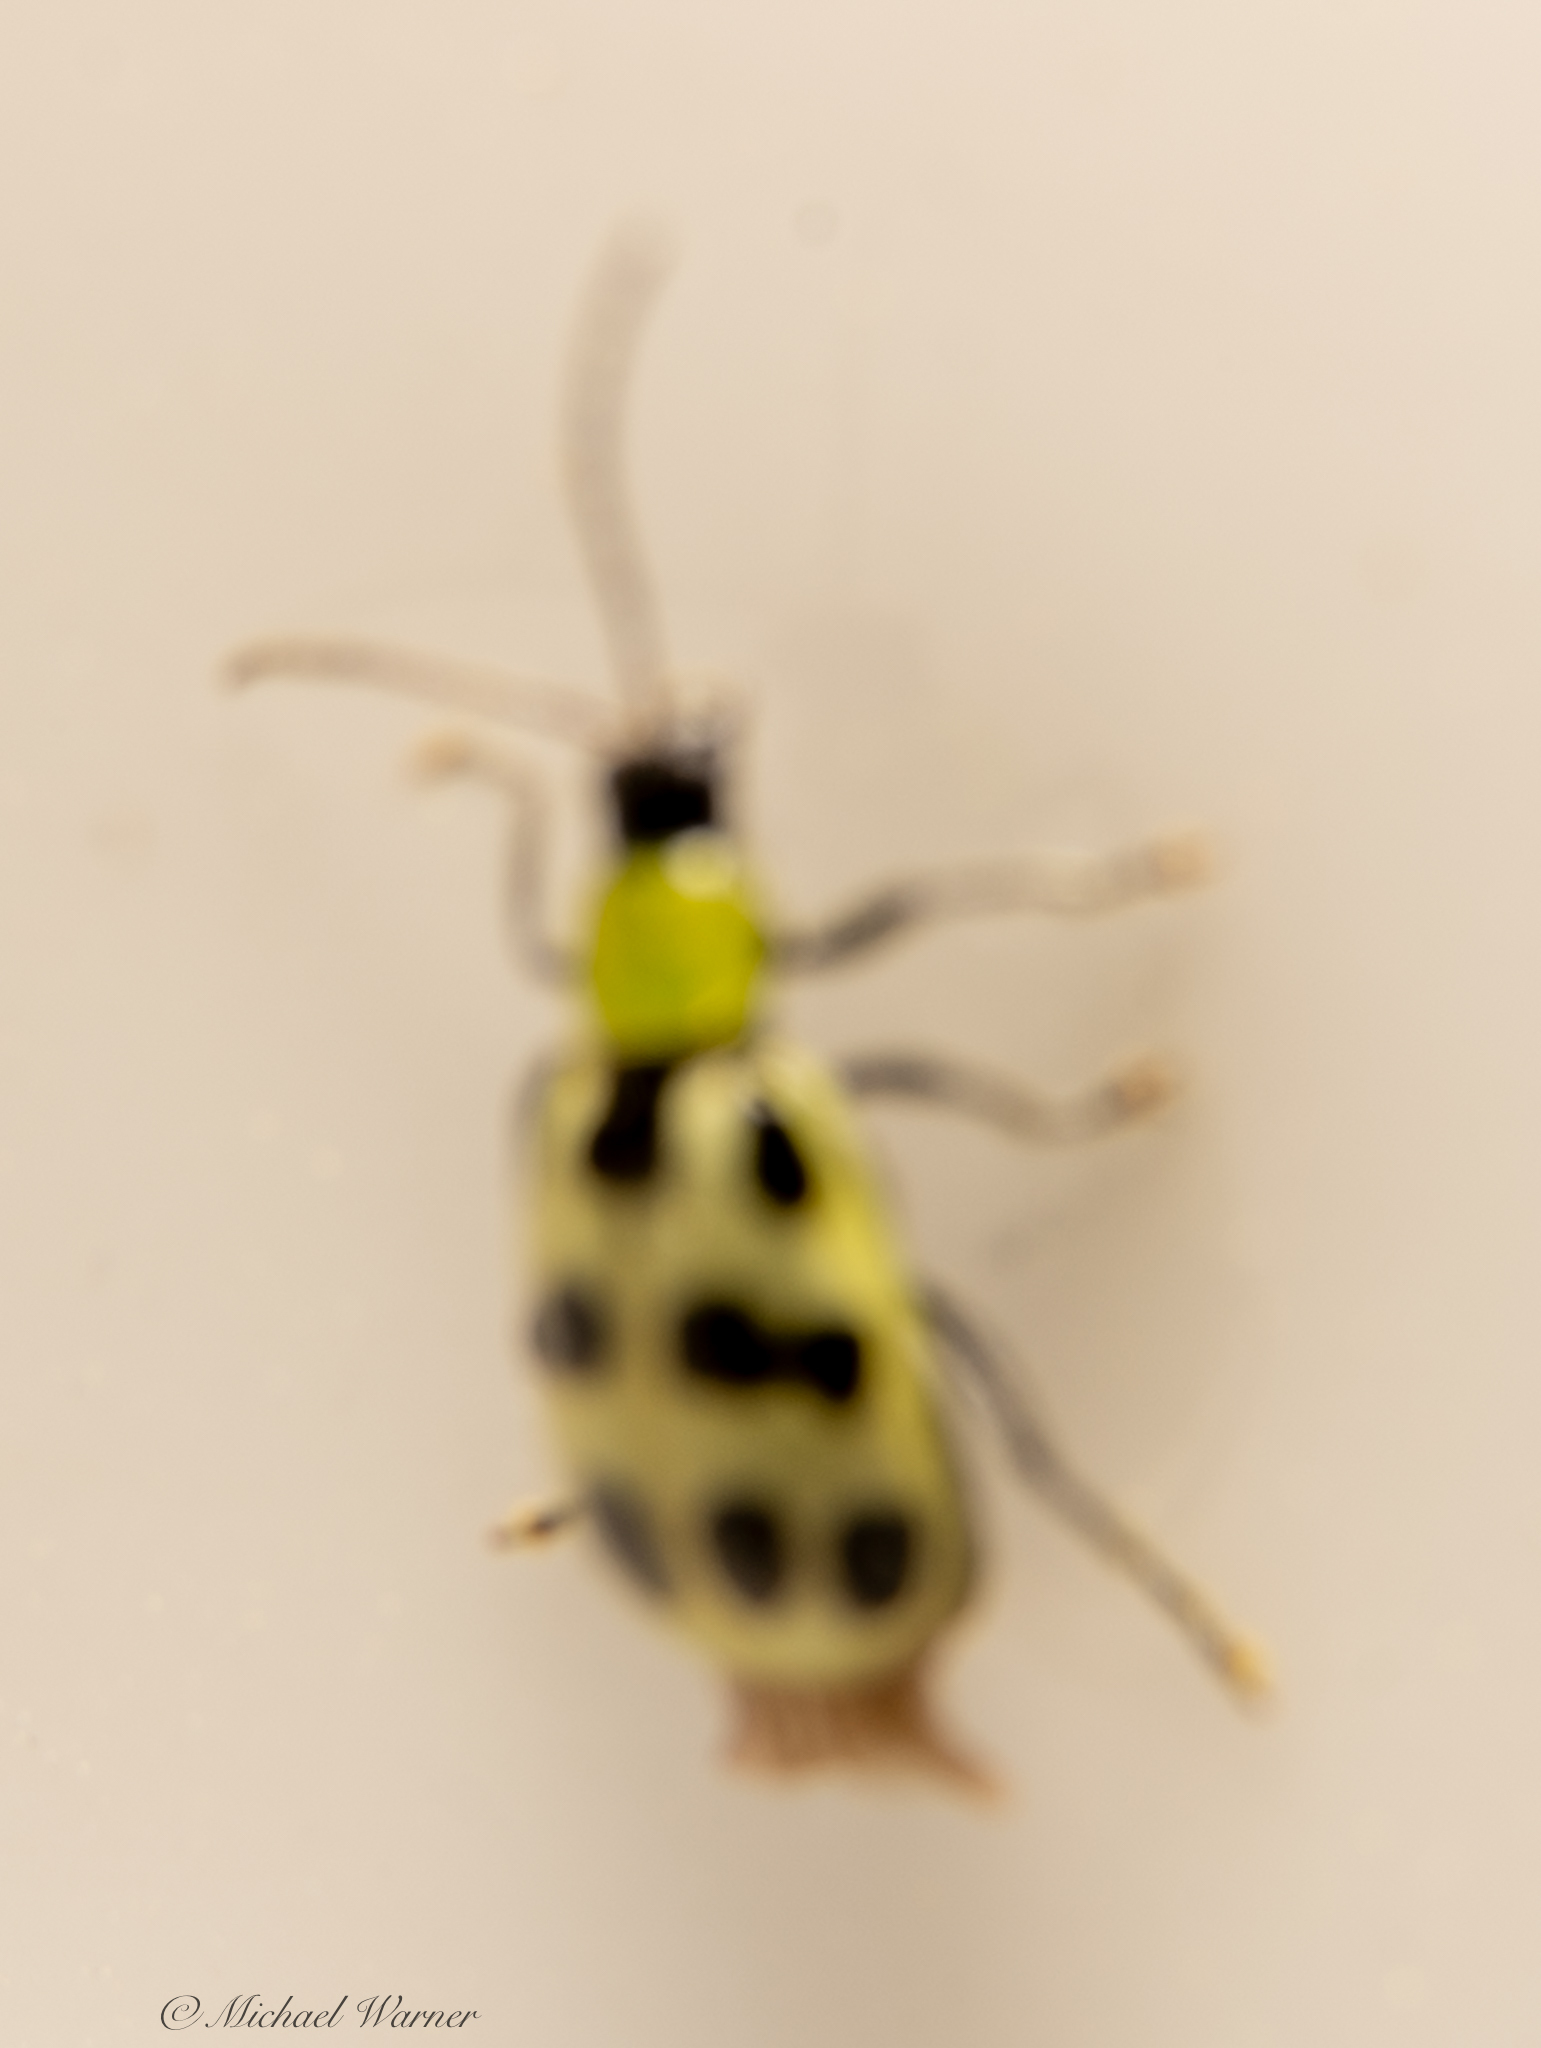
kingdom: Animalia
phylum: Arthropoda
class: Insecta
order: Coleoptera
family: Chrysomelidae
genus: Diabrotica
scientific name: Diabrotica undecimpunctata
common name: Spotted cucumber beetle
